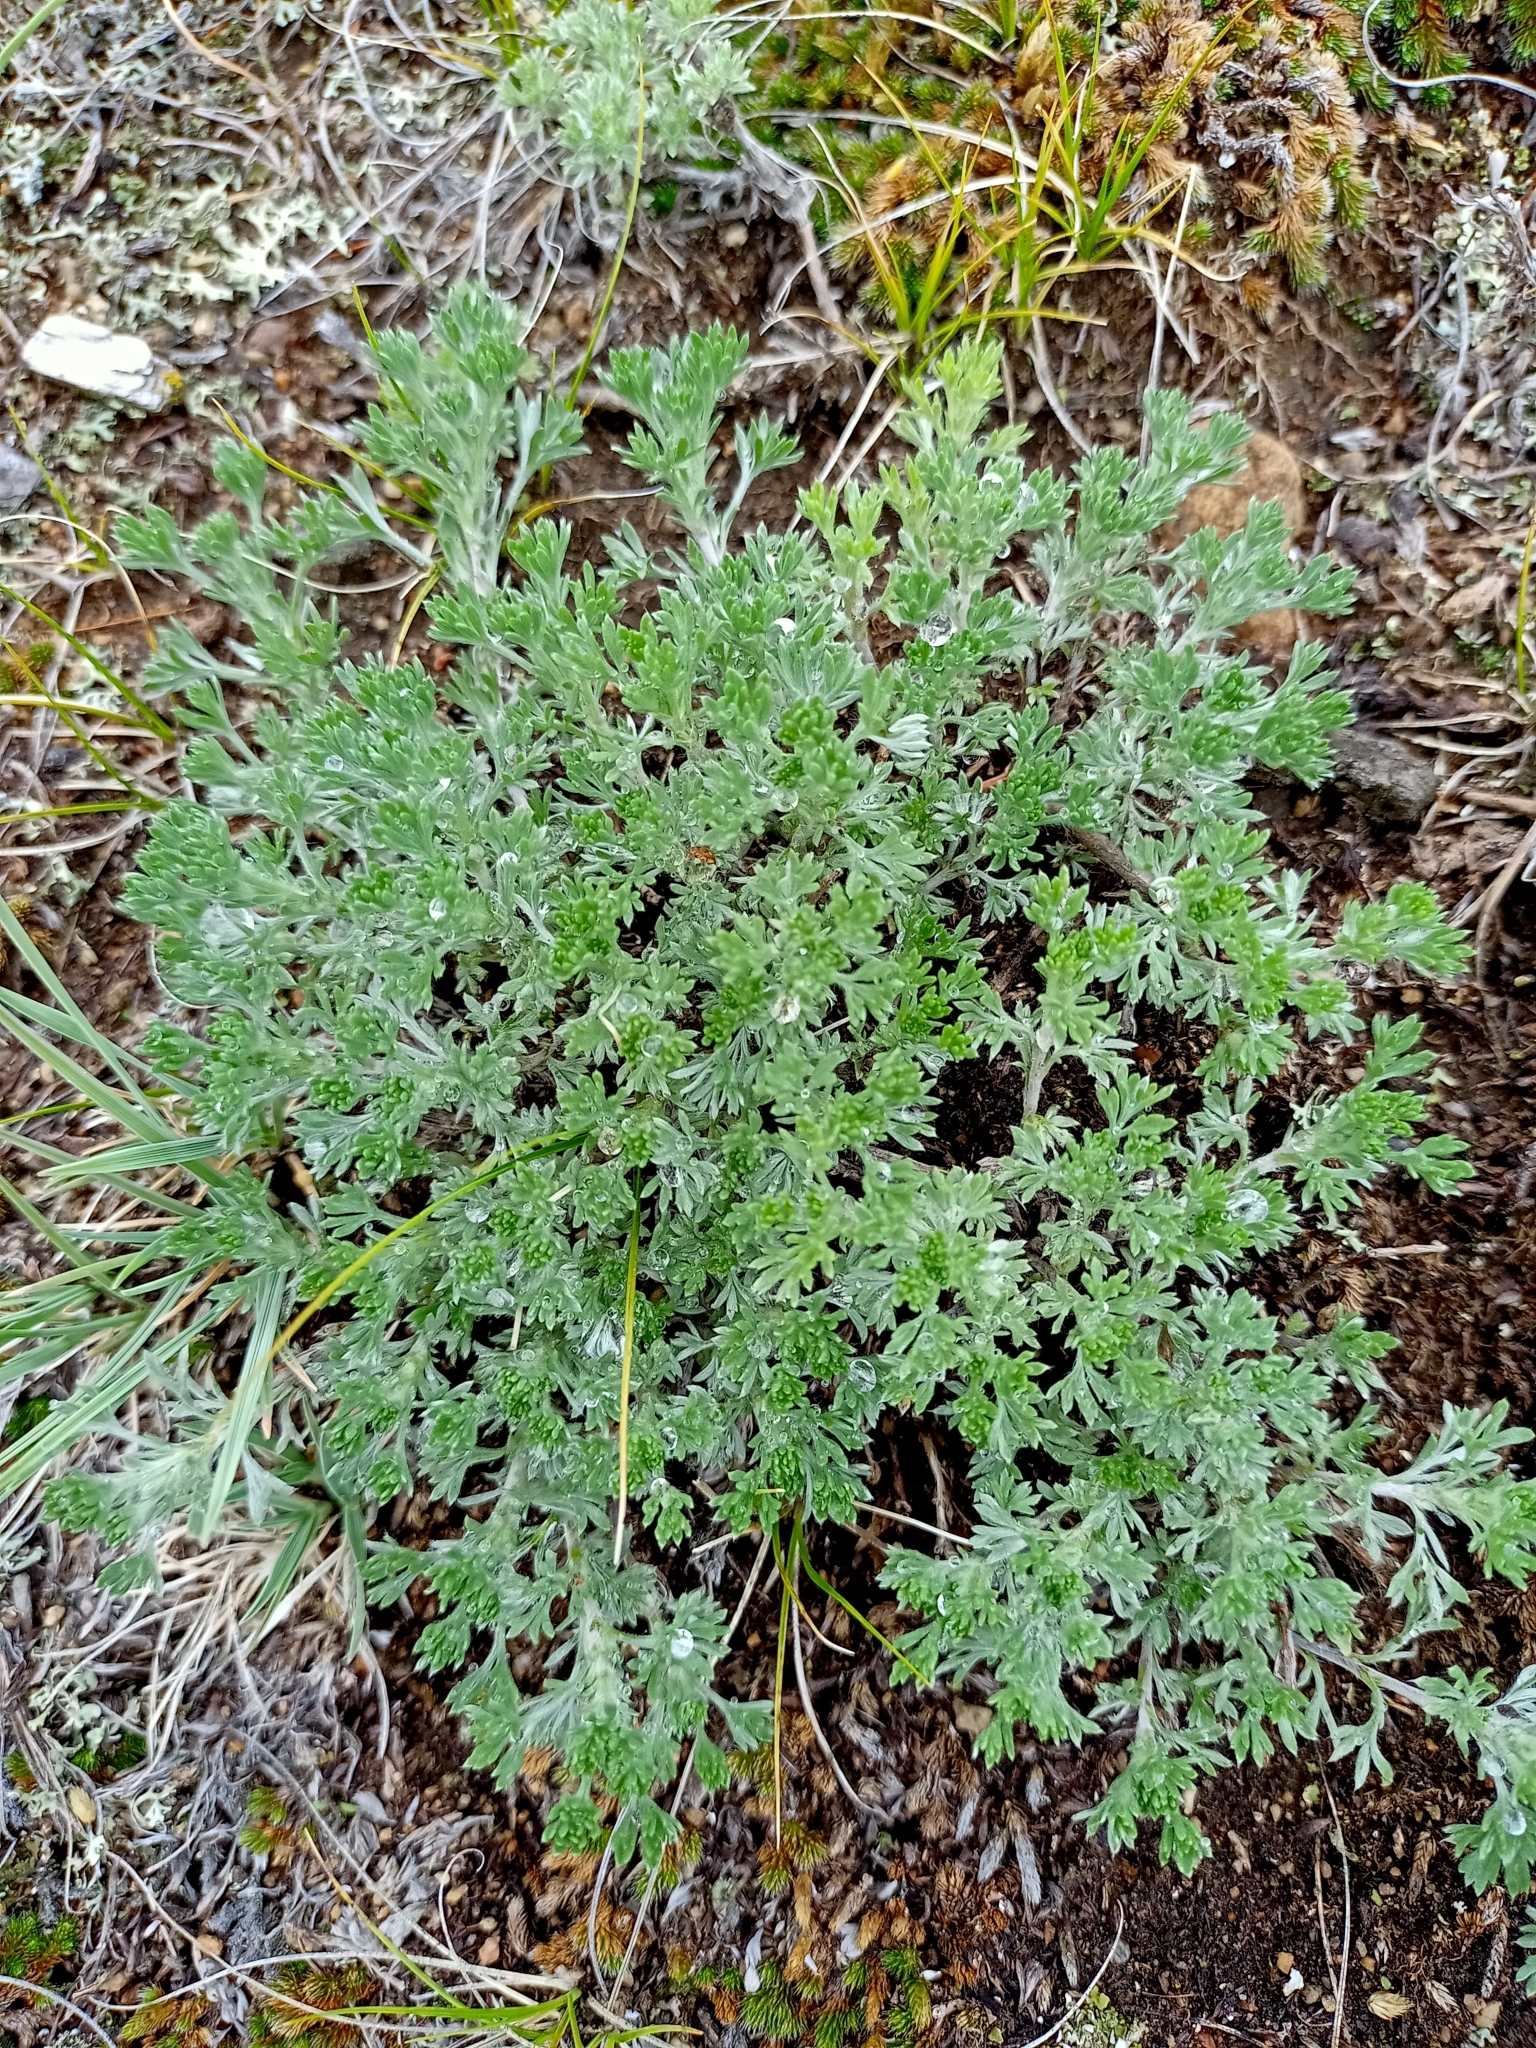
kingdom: Plantae
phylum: Tracheophyta
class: Magnoliopsida
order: Asterales
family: Asteraceae
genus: Artemisia
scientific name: Artemisia frigida
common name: Prairie sagewort
